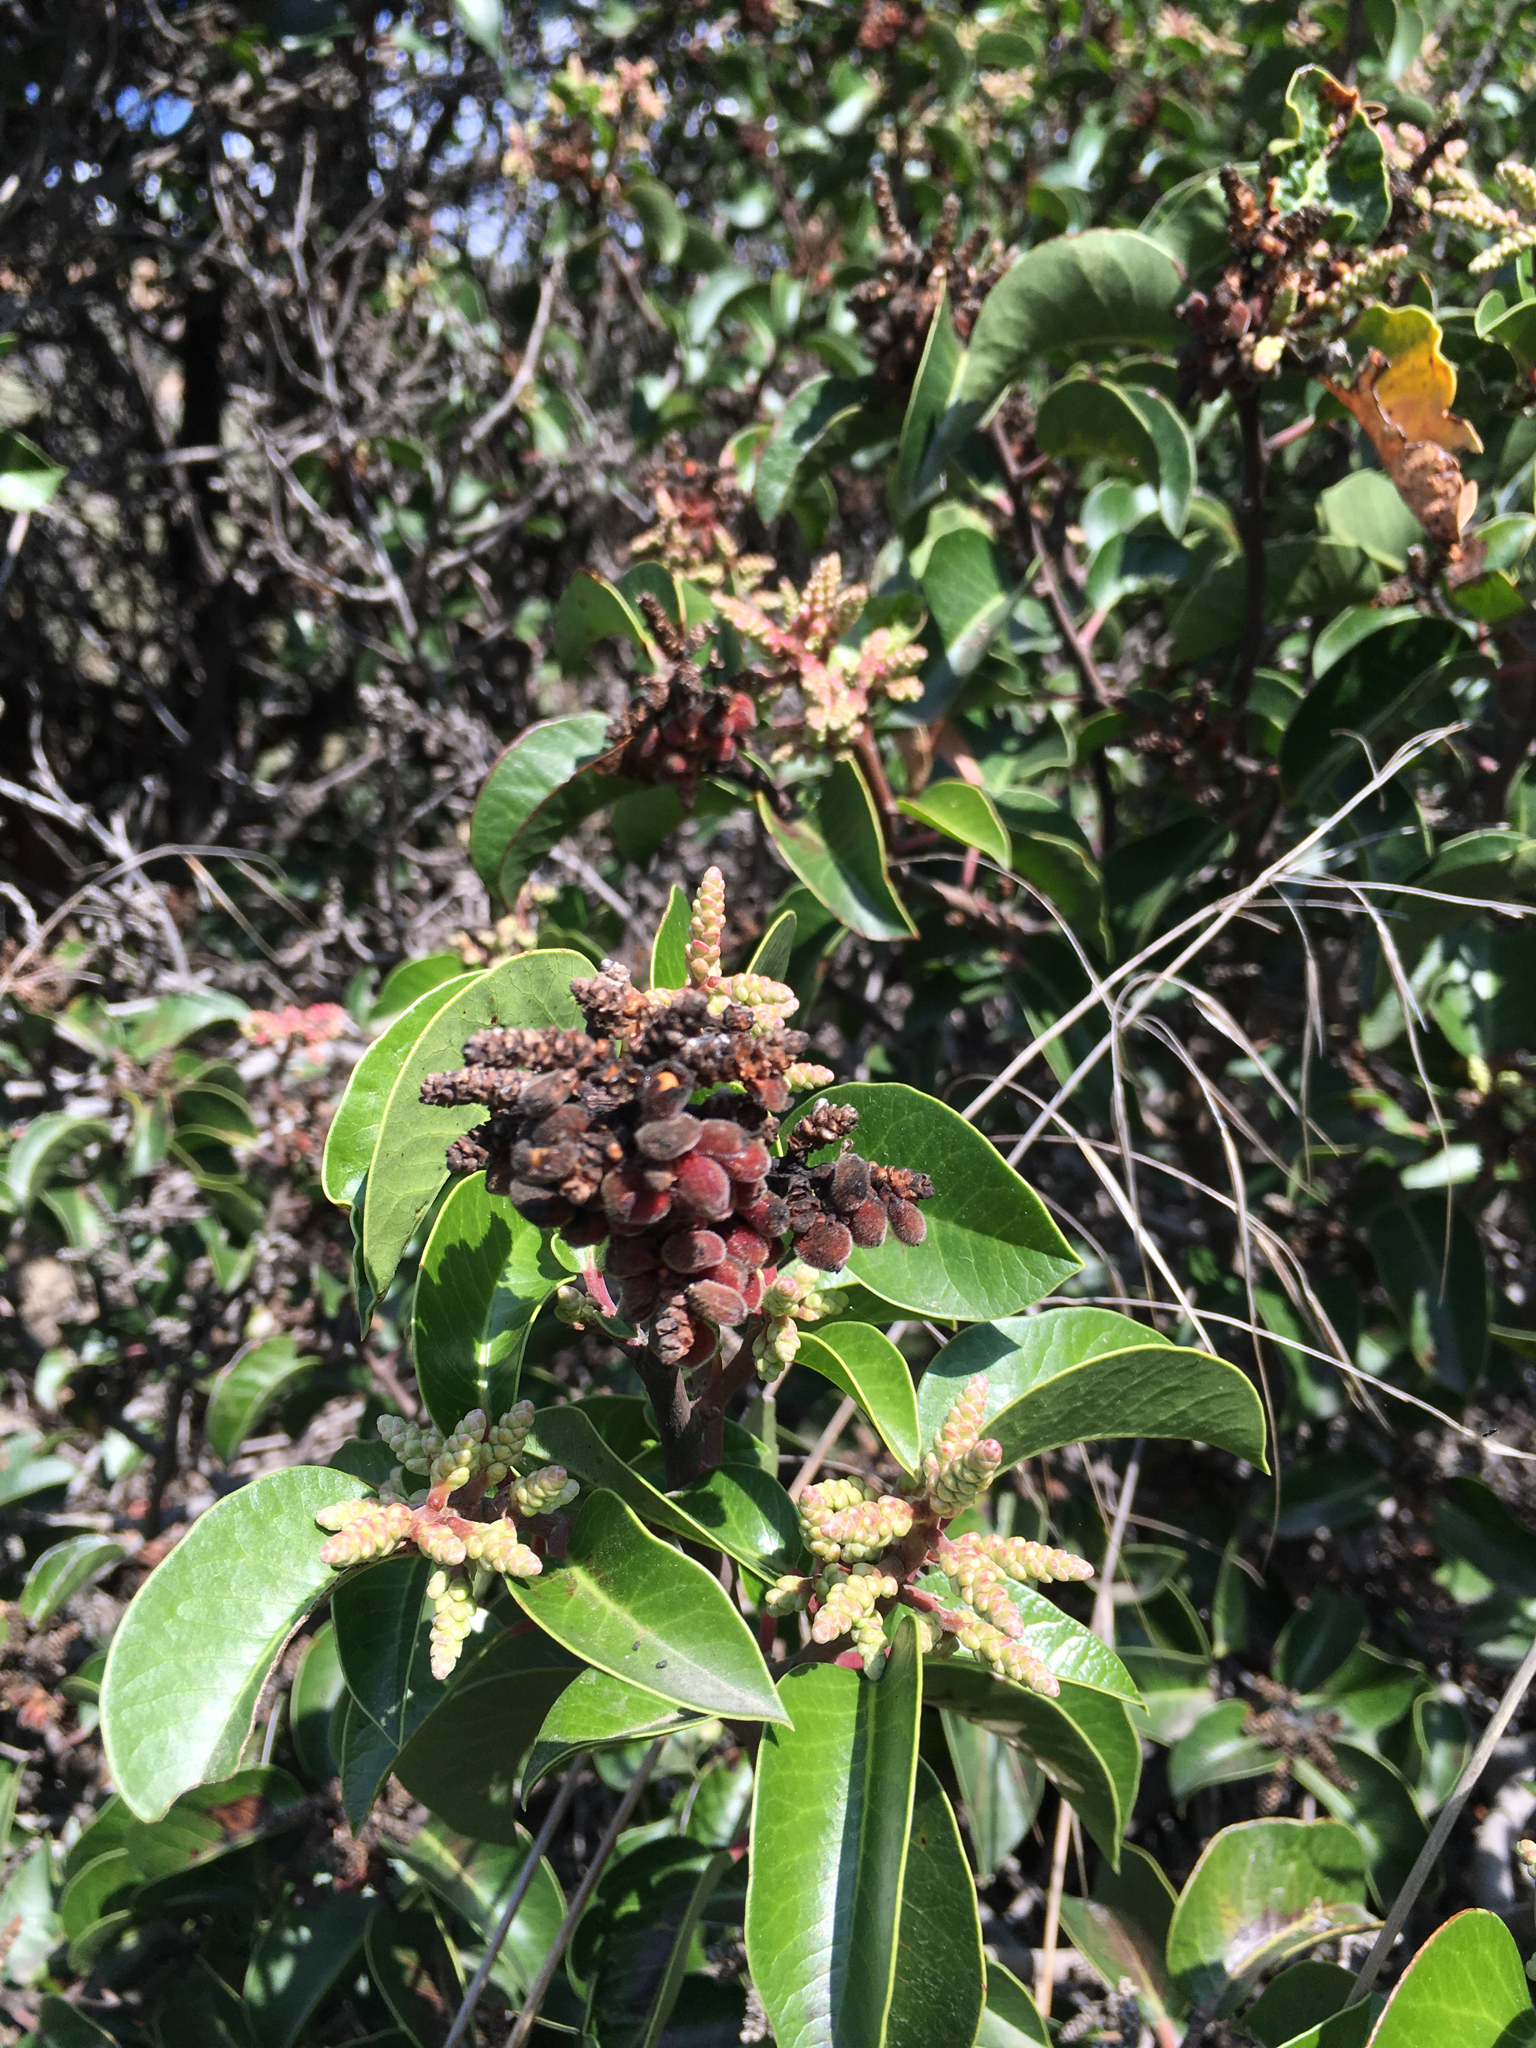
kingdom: Plantae
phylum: Tracheophyta
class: Magnoliopsida
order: Sapindales
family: Anacardiaceae
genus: Rhus
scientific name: Rhus ovata
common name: Sugar sumac
